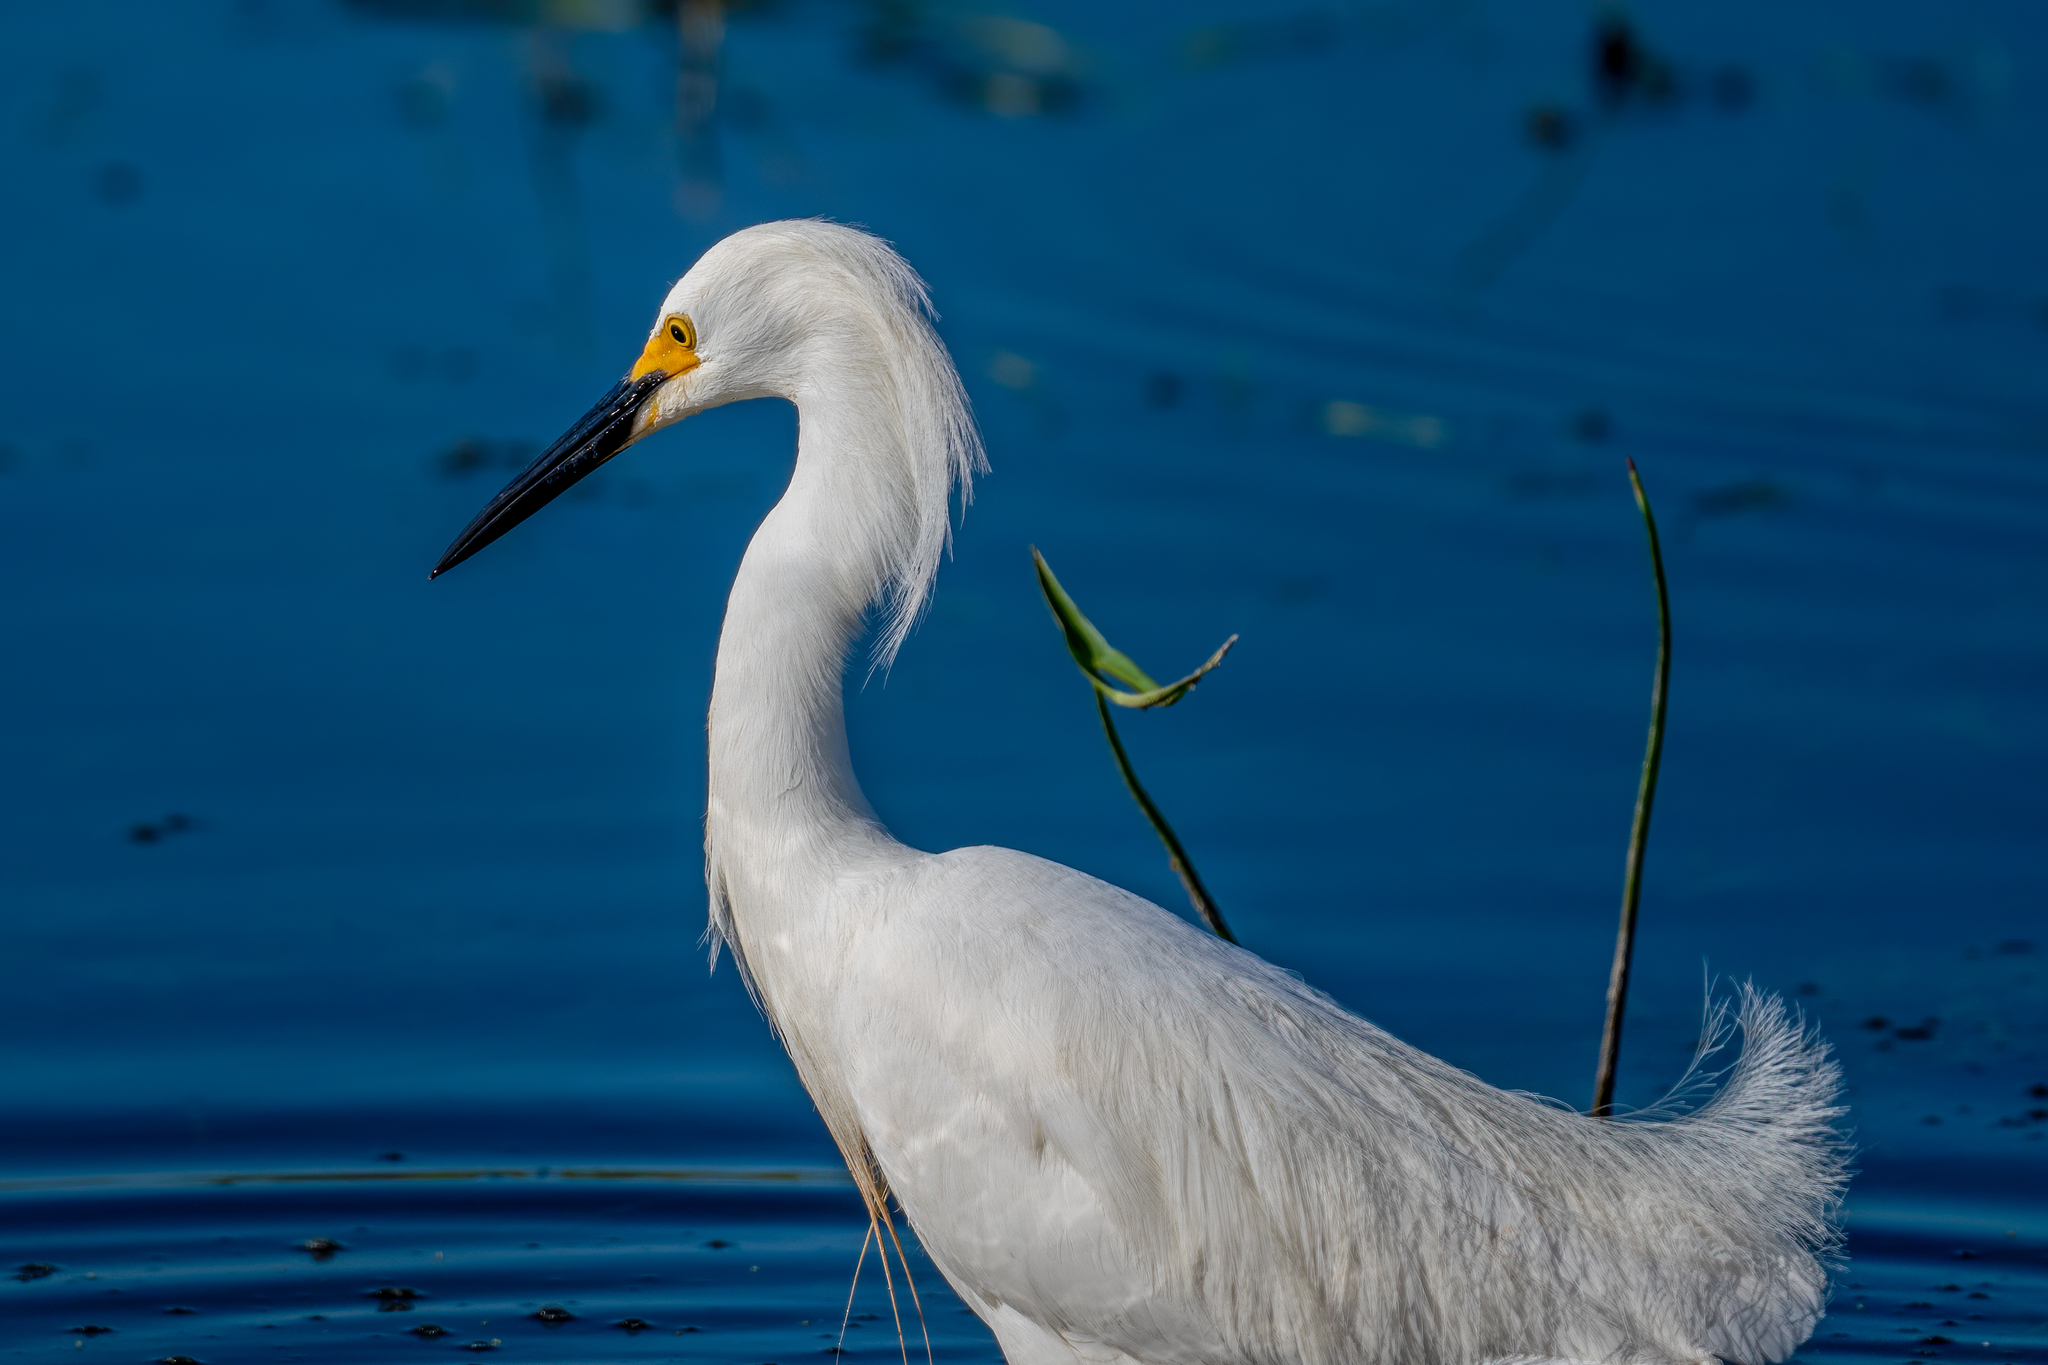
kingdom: Animalia
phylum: Chordata
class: Aves
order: Pelecaniformes
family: Ardeidae
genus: Egretta
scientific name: Egretta thula
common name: Snowy egret
